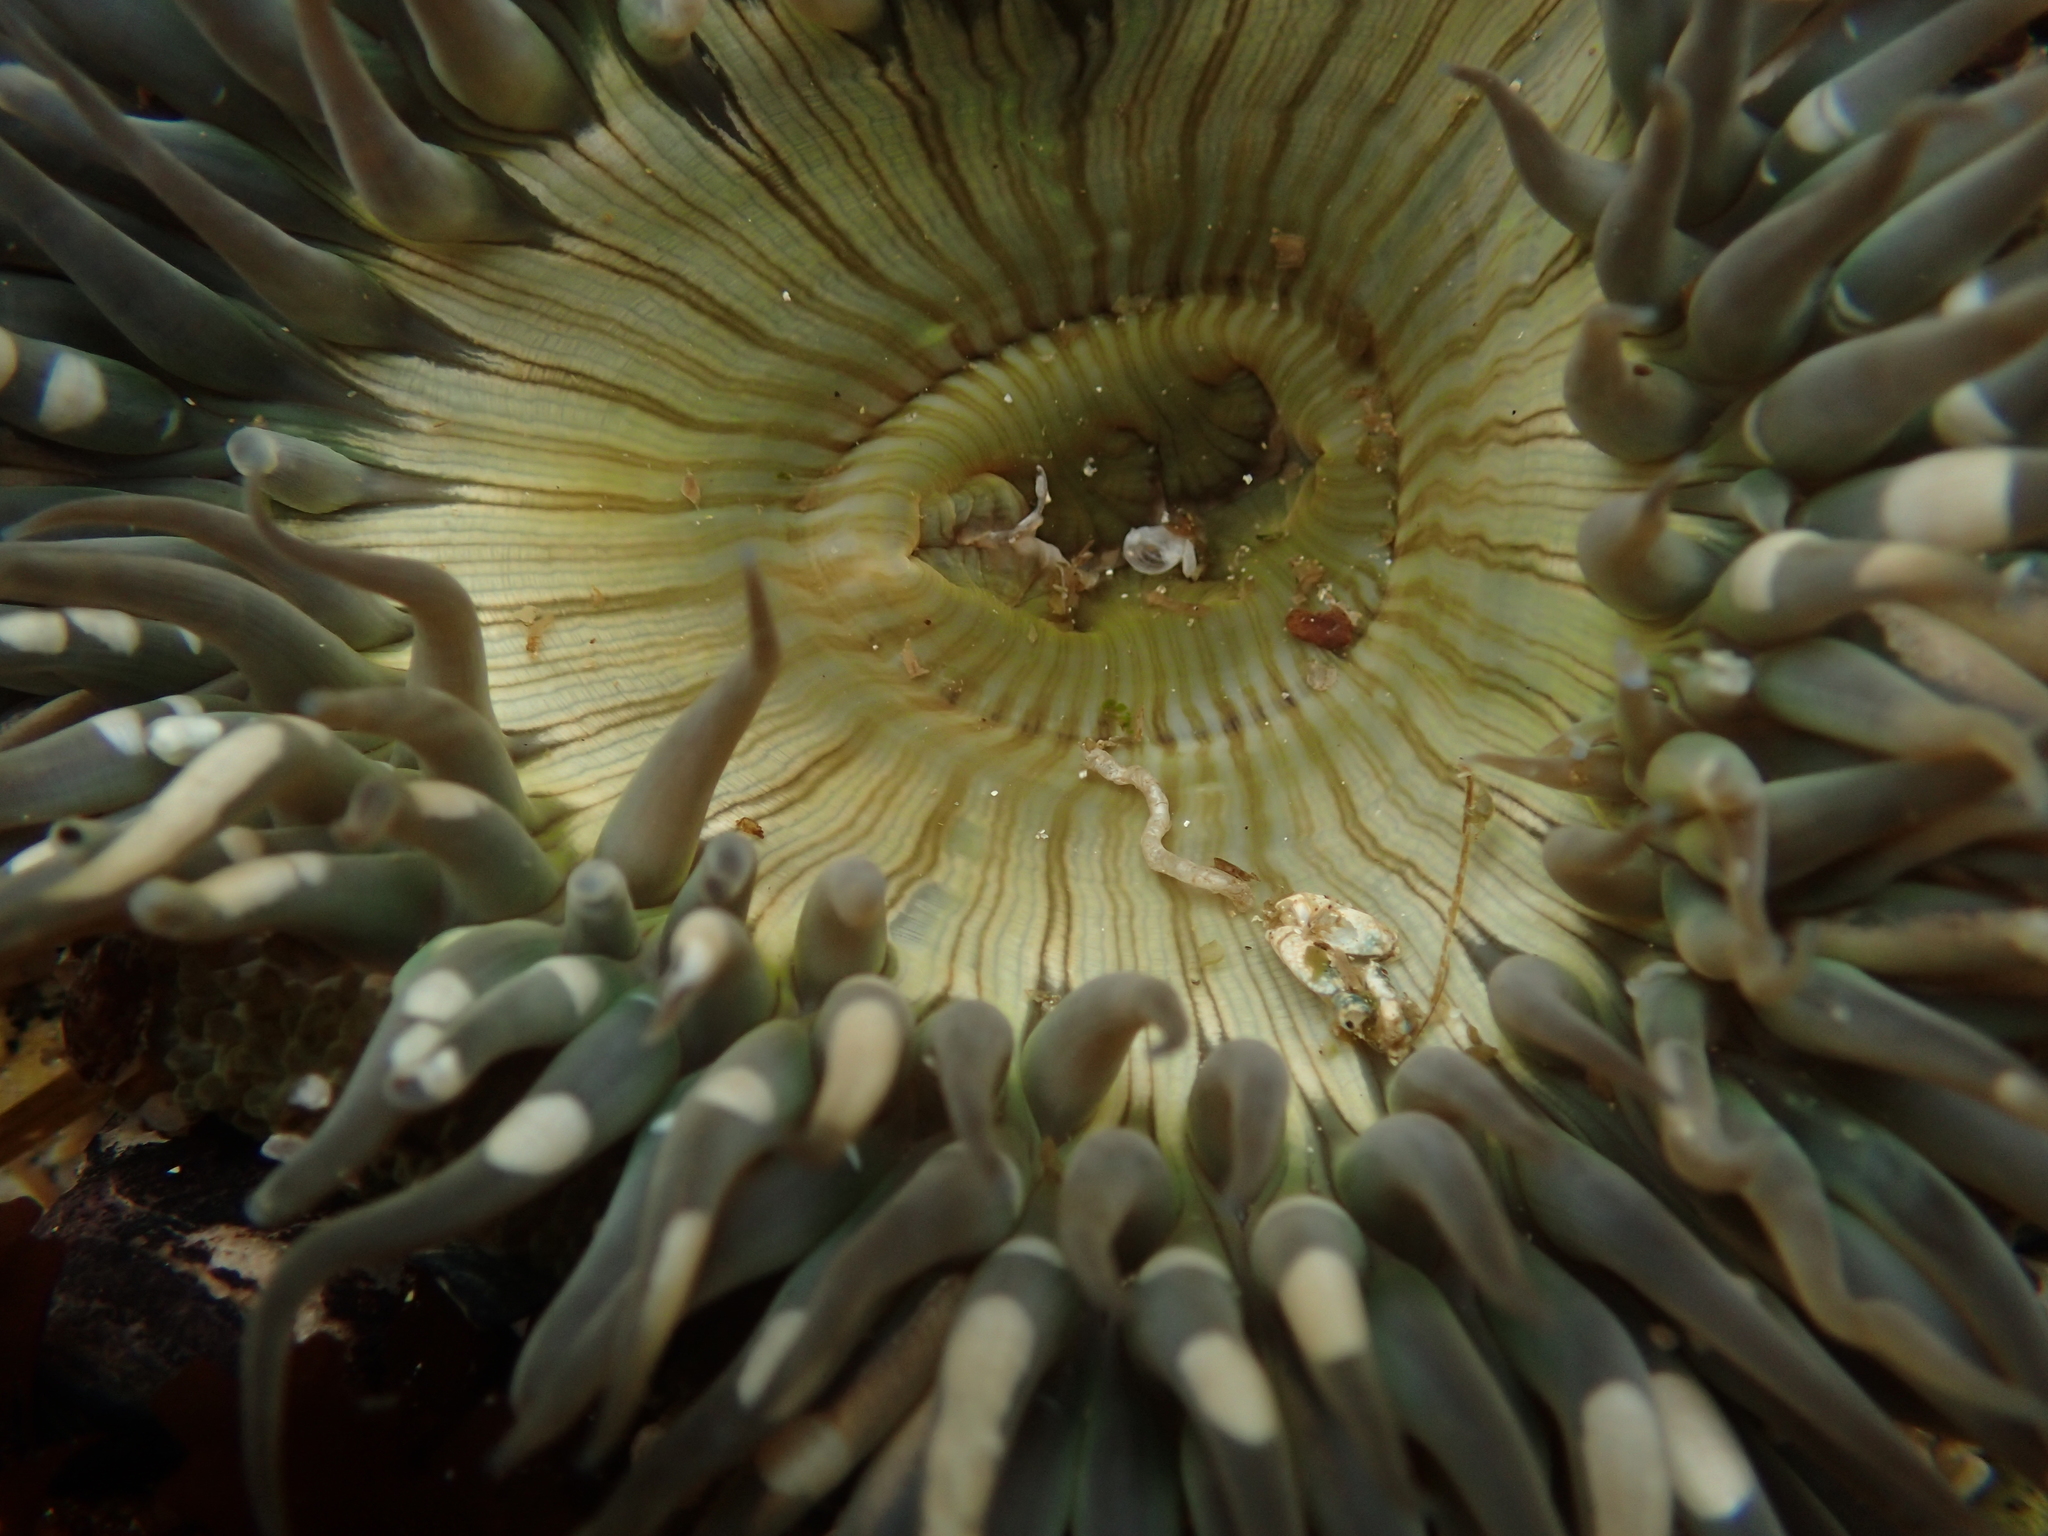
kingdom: Animalia
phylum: Cnidaria
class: Anthozoa
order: Actiniaria
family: Actiniidae
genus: Anthopleura
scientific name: Anthopleura sola
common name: Sun anemone
